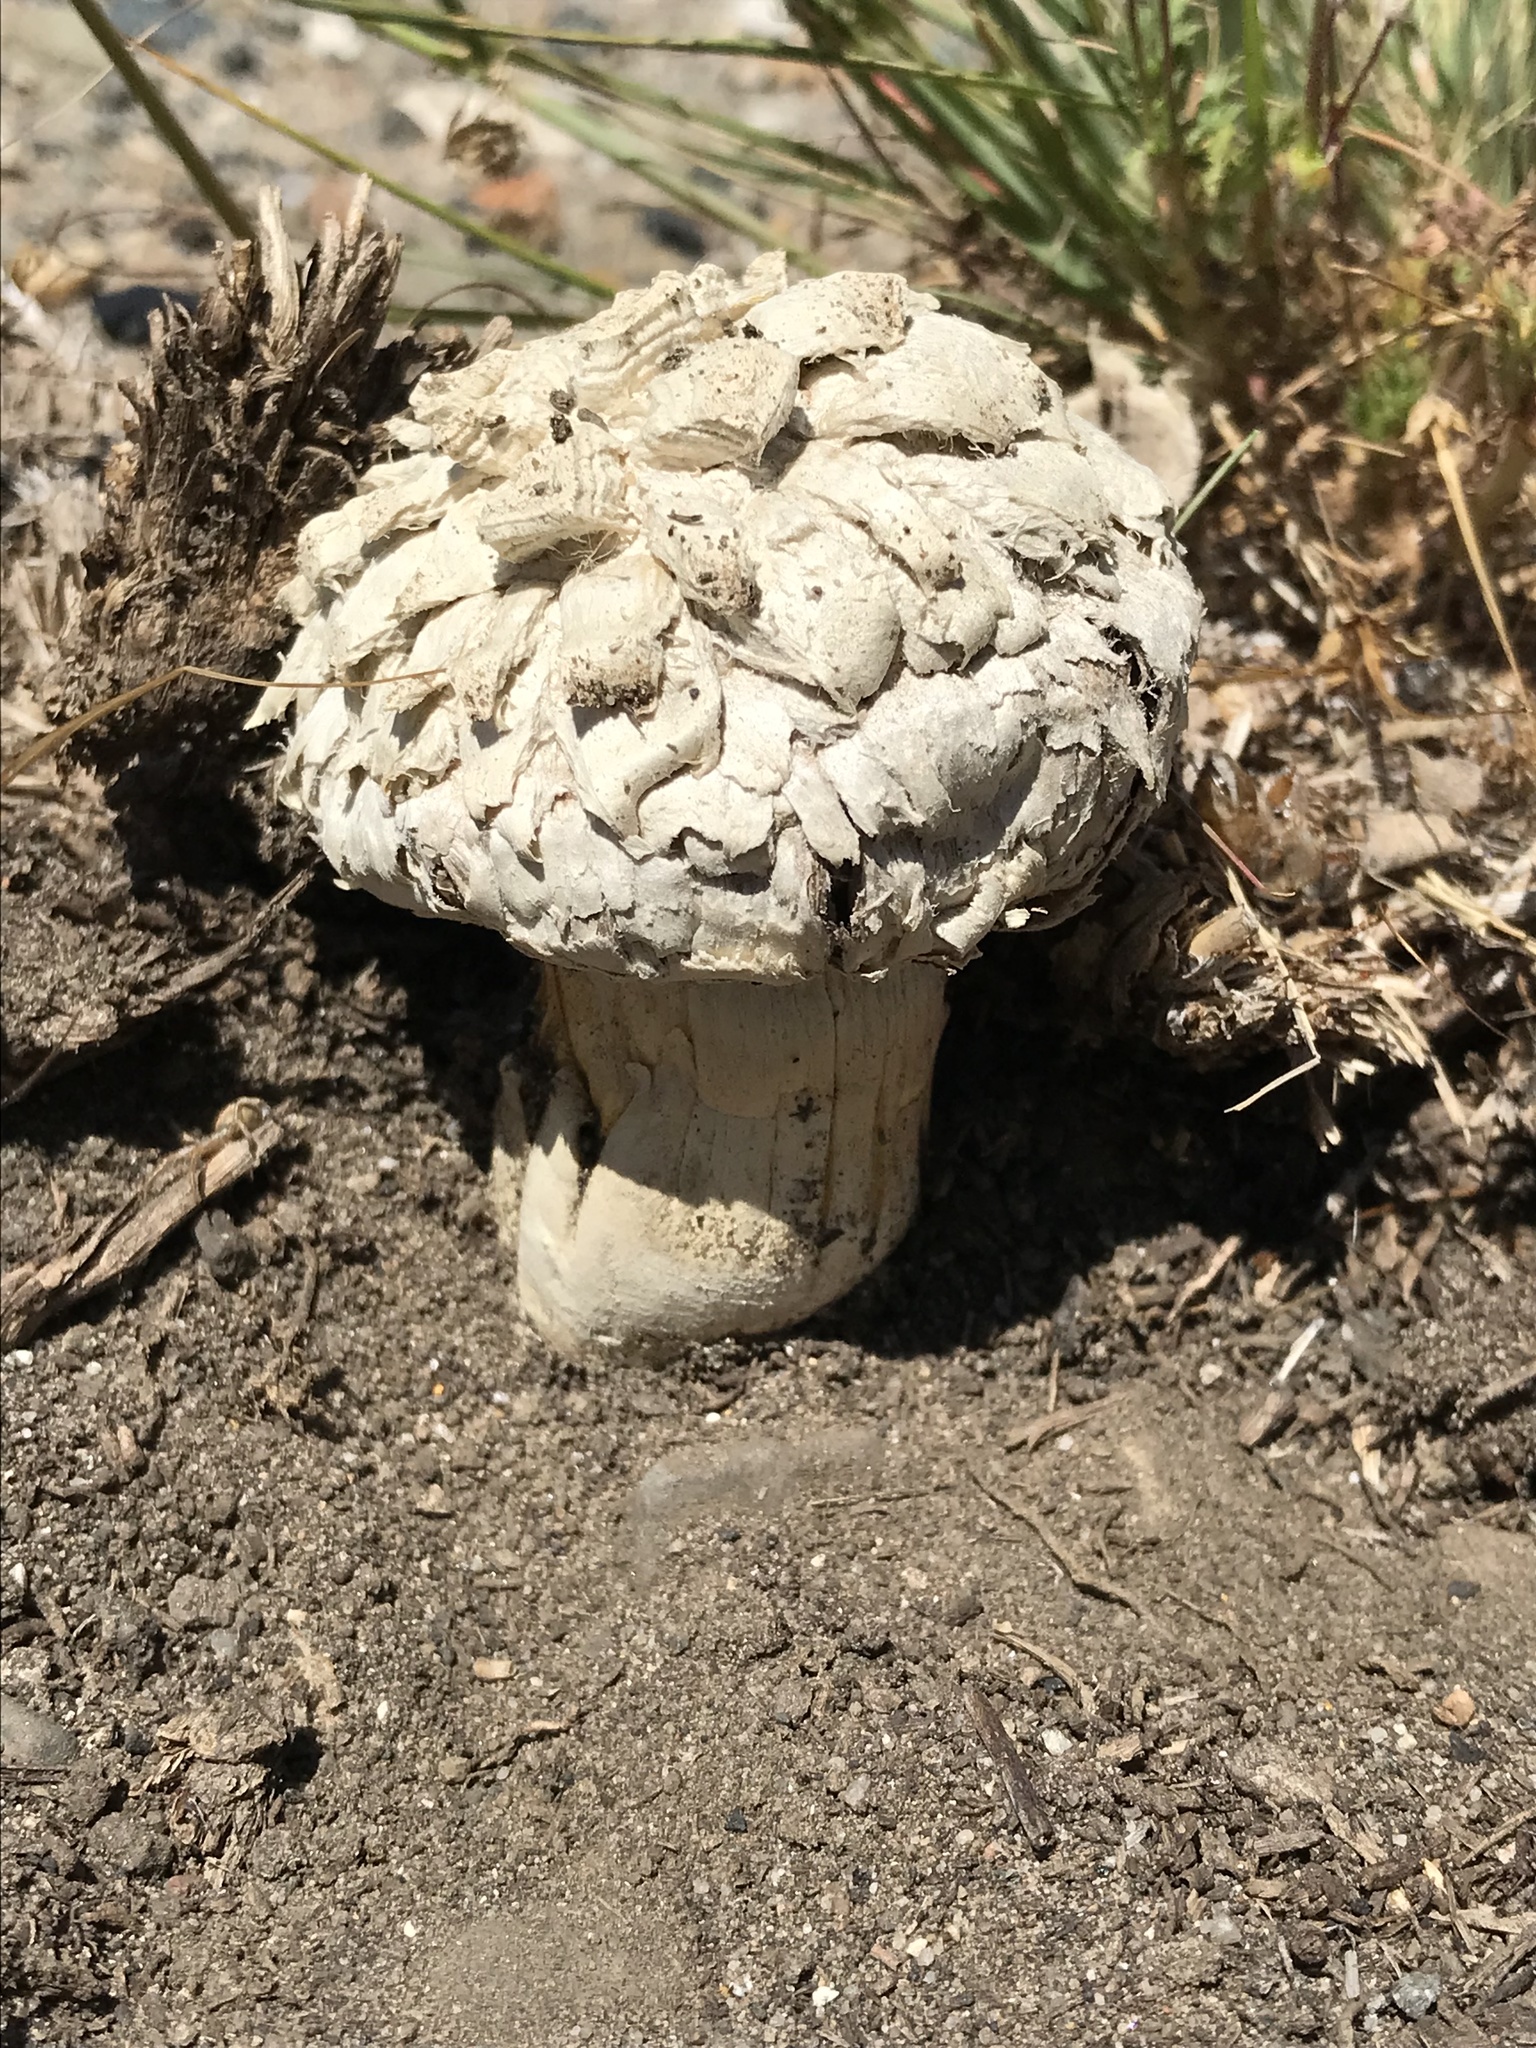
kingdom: Fungi
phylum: Basidiomycota
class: Agaricomycetes
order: Agaricales
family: Agaricaceae
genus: Agaricus
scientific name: Agaricus deserticola
